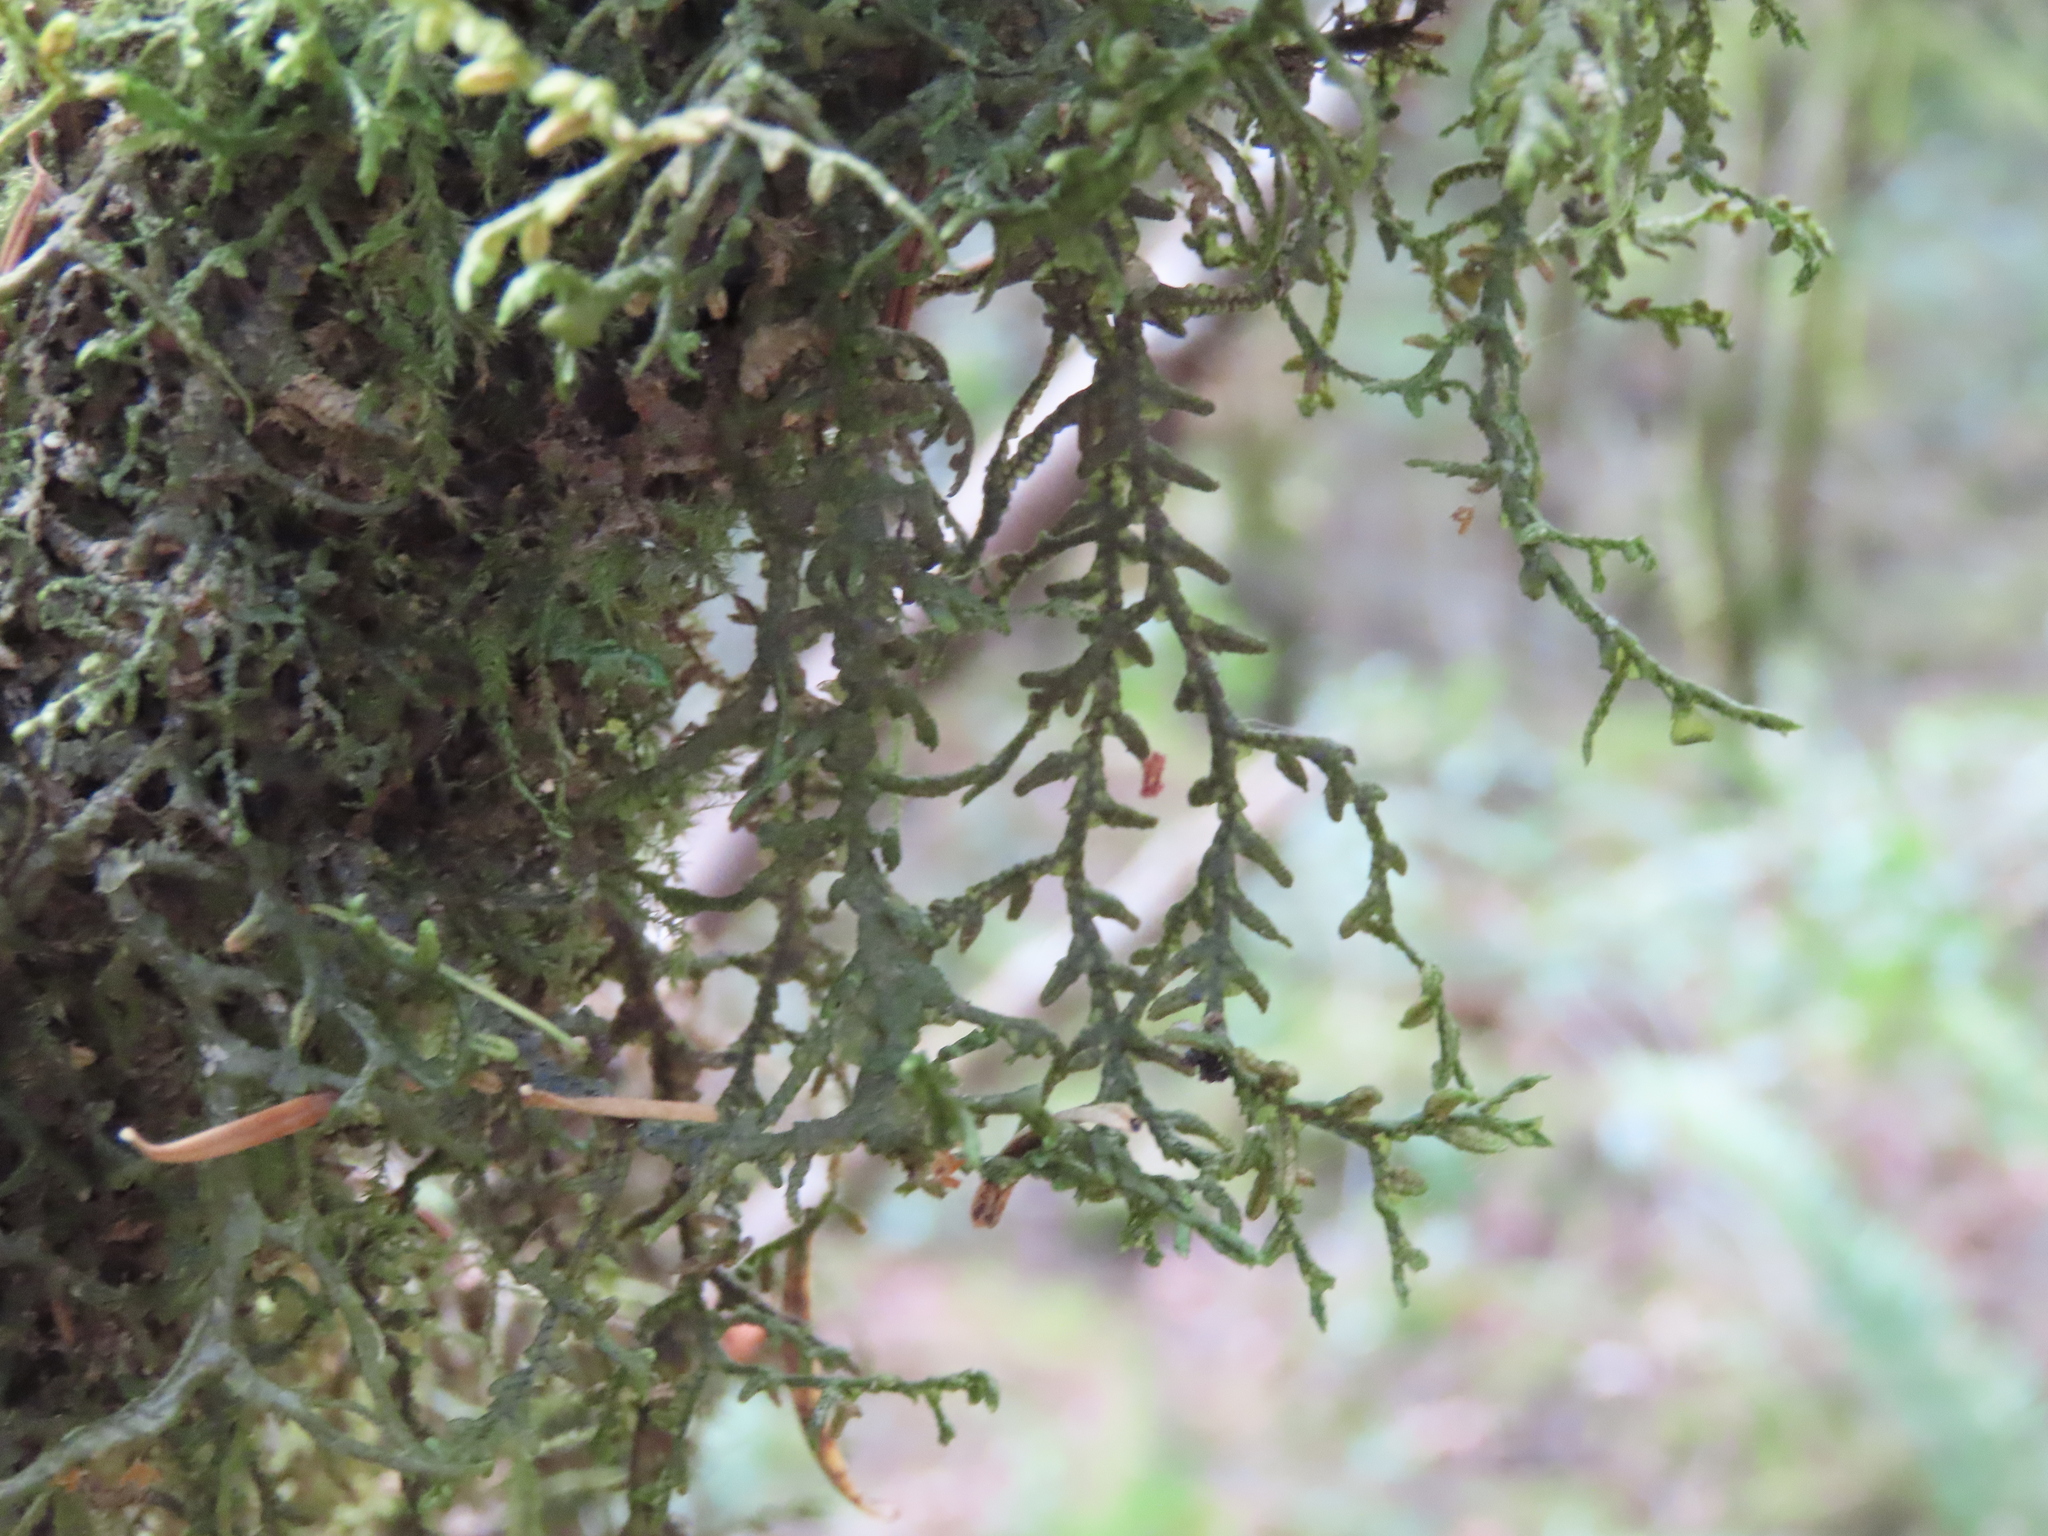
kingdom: Plantae
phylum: Marchantiophyta
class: Jungermanniopsida
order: Porellales
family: Porellaceae
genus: Porella
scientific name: Porella navicularis
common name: Tree ruffle liverwort
